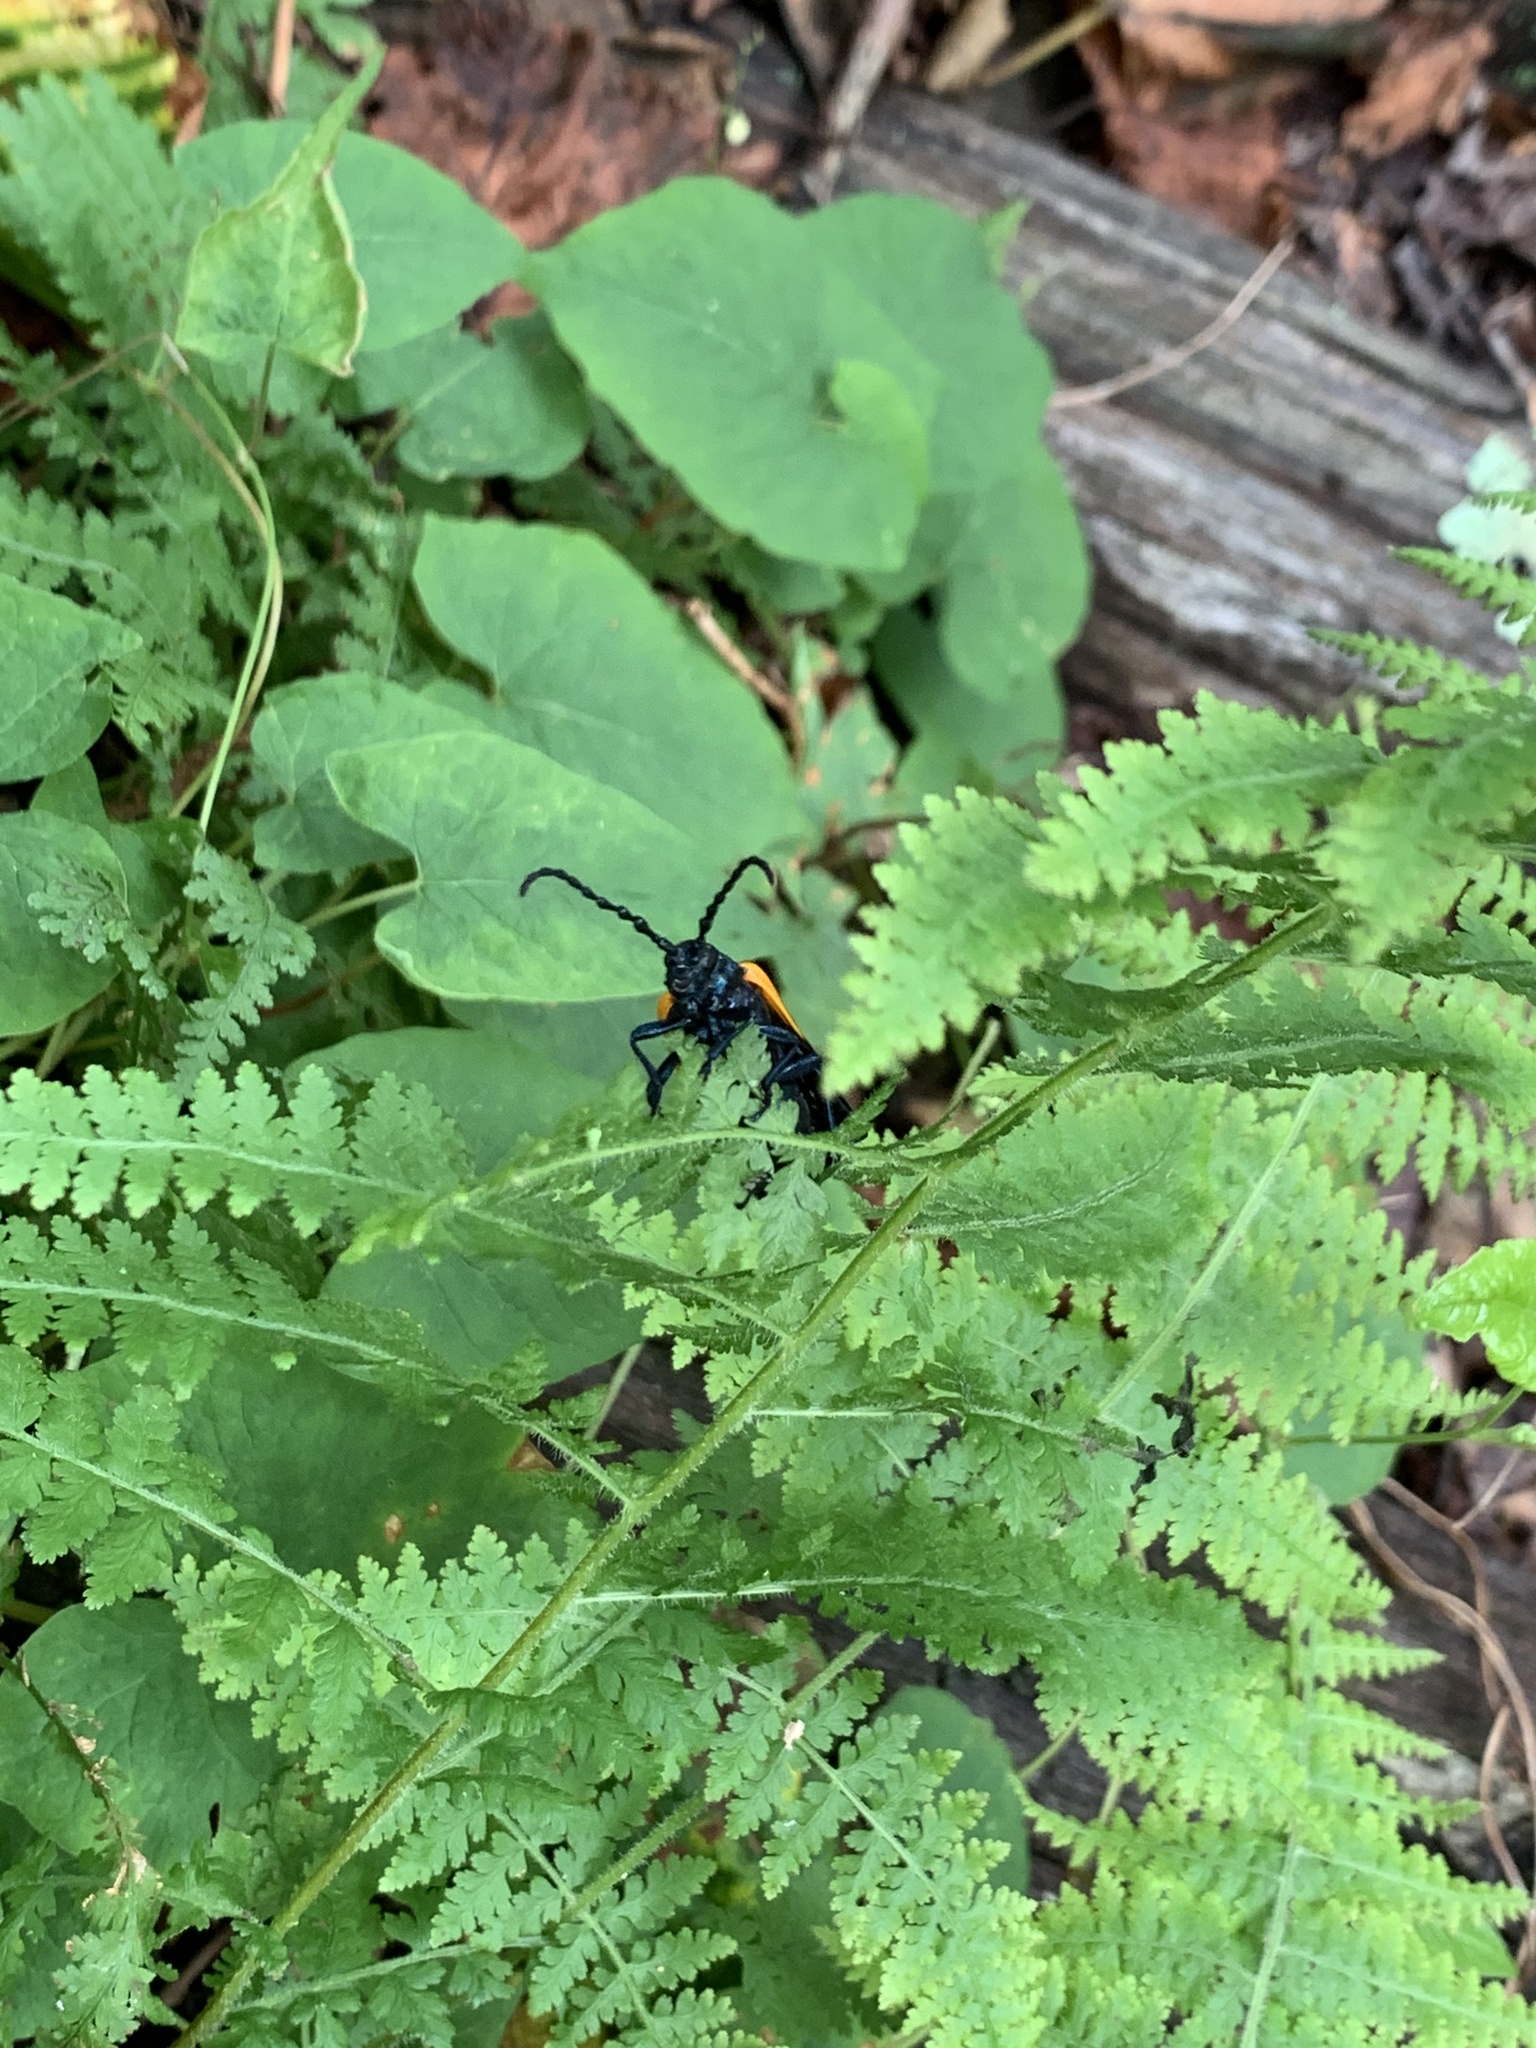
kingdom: Animalia
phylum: Arthropoda
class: Insecta
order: Coleoptera
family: Cerambycidae
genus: Desmocerus
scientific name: Desmocerus palliatus
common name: Eastern elderberry borer
